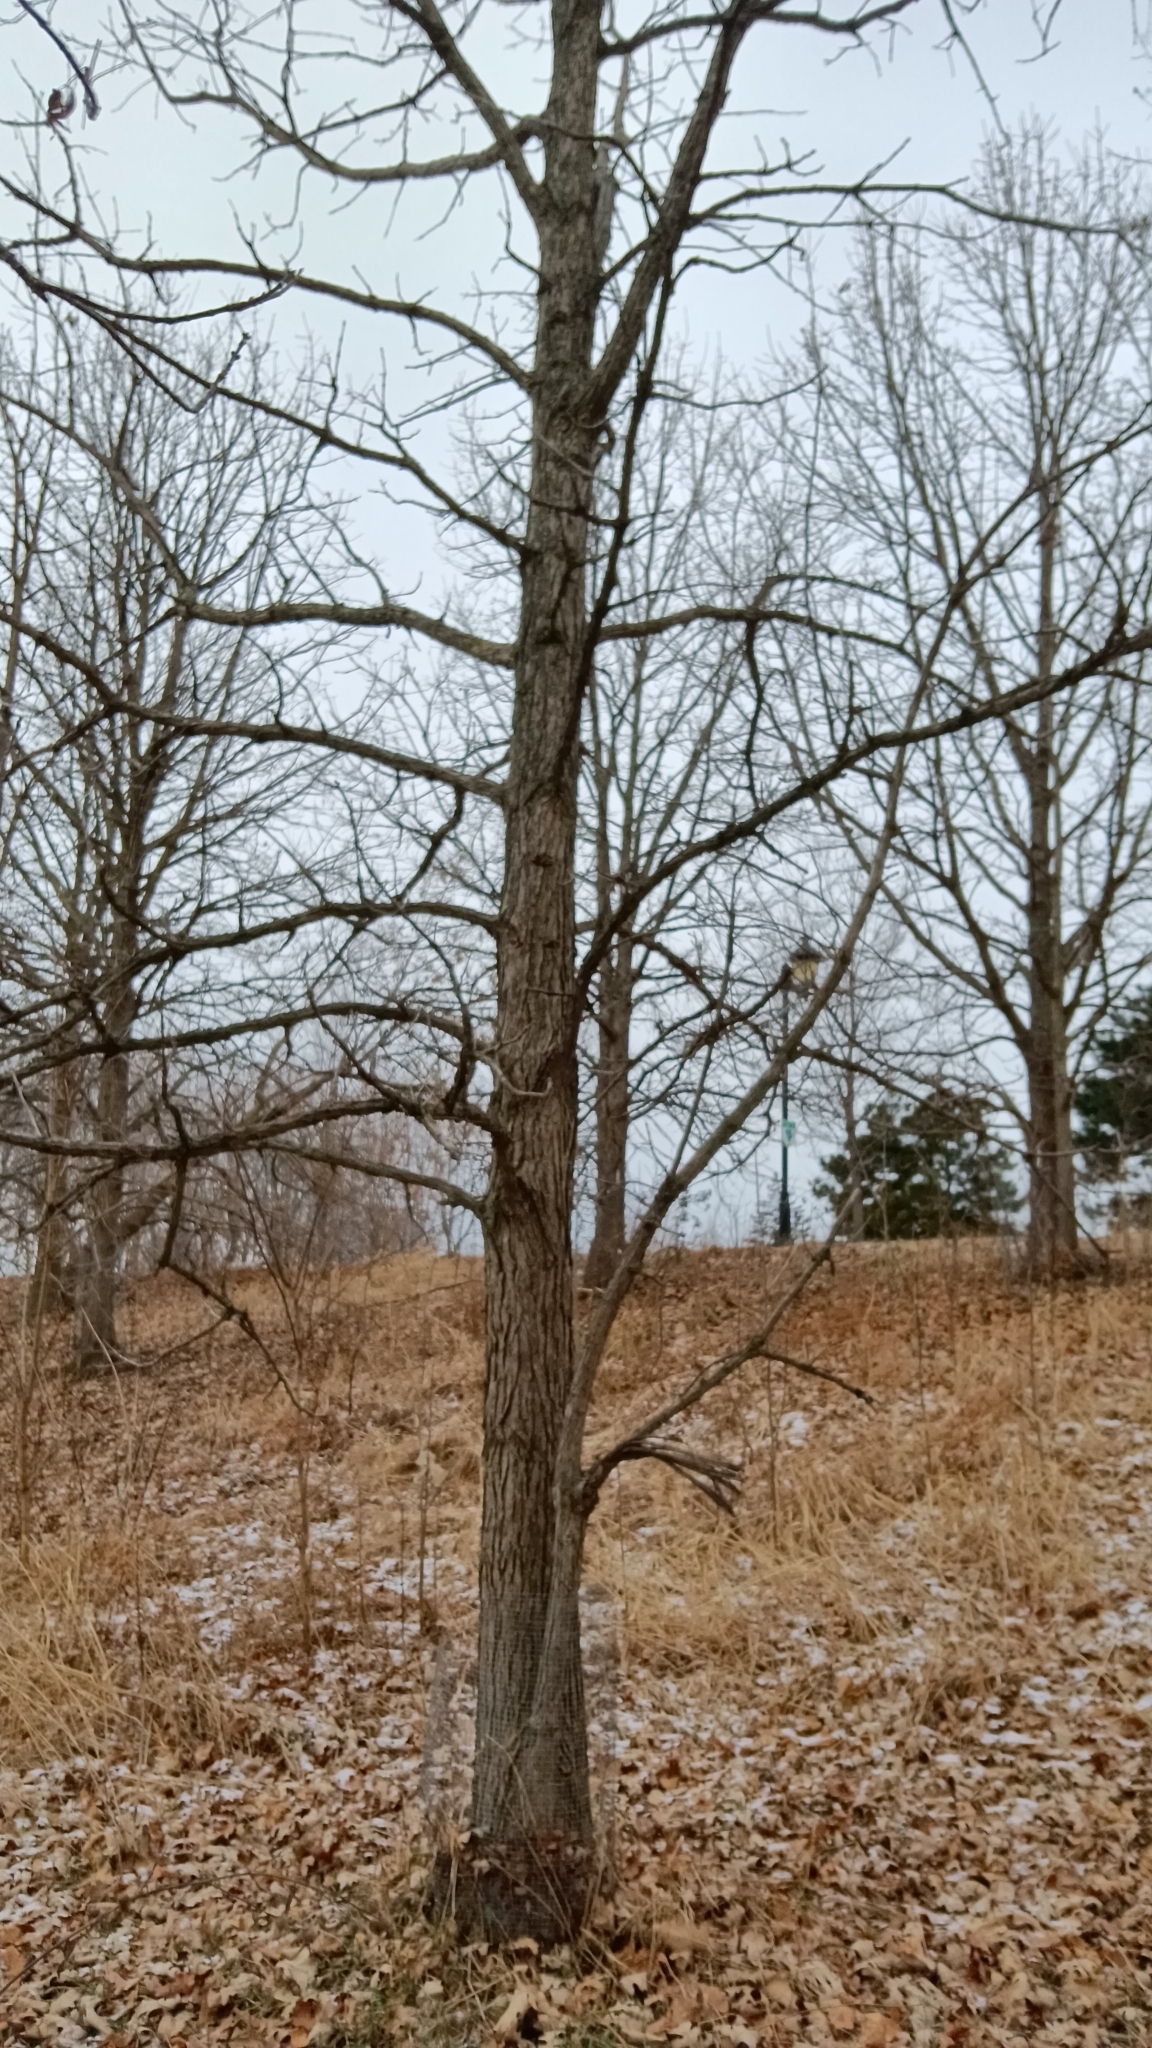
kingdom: Plantae
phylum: Tracheophyta
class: Magnoliopsida
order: Fagales
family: Fagaceae
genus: Quercus
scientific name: Quercus macrocarpa
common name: Bur oak
